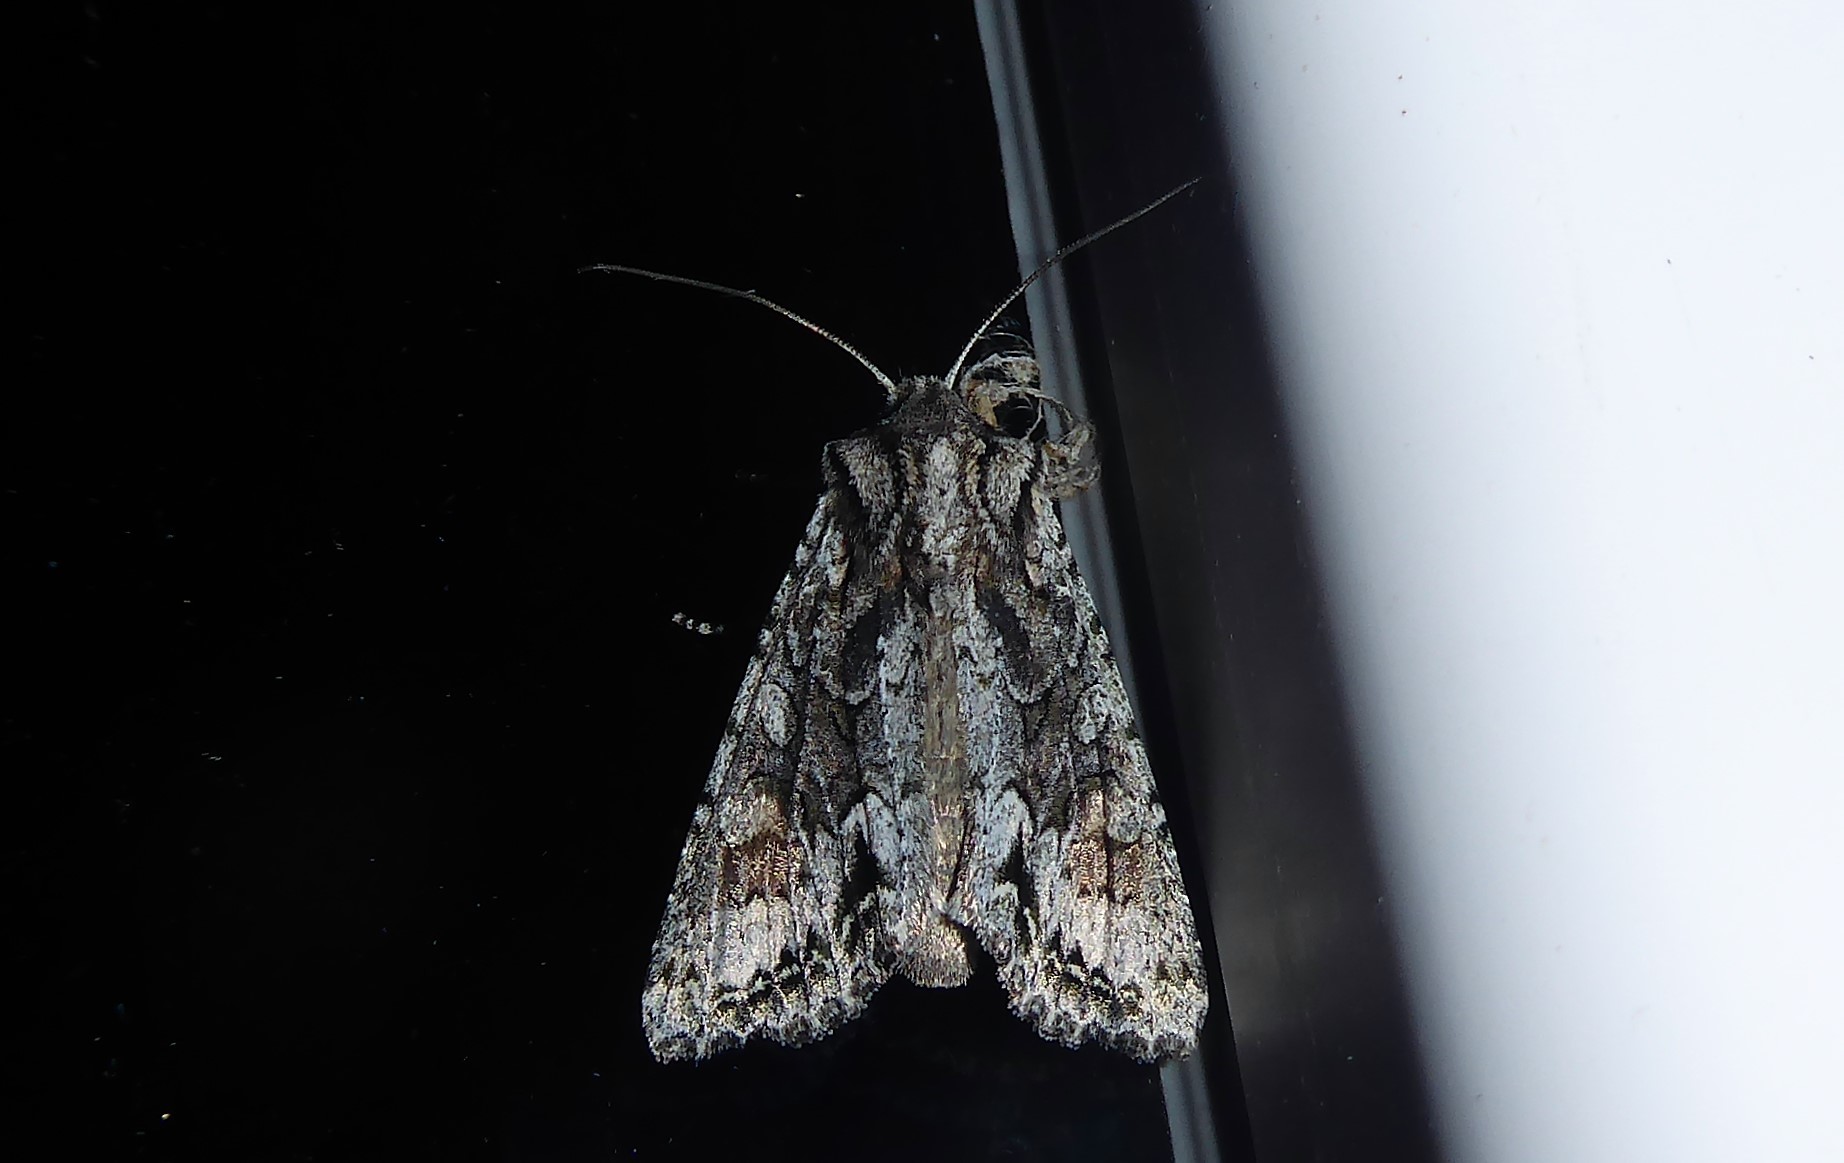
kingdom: Animalia
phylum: Arthropoda
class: Insecta
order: Lepidoptera
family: Noctuidae
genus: Ichneutica
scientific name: Ichneutica mutans
